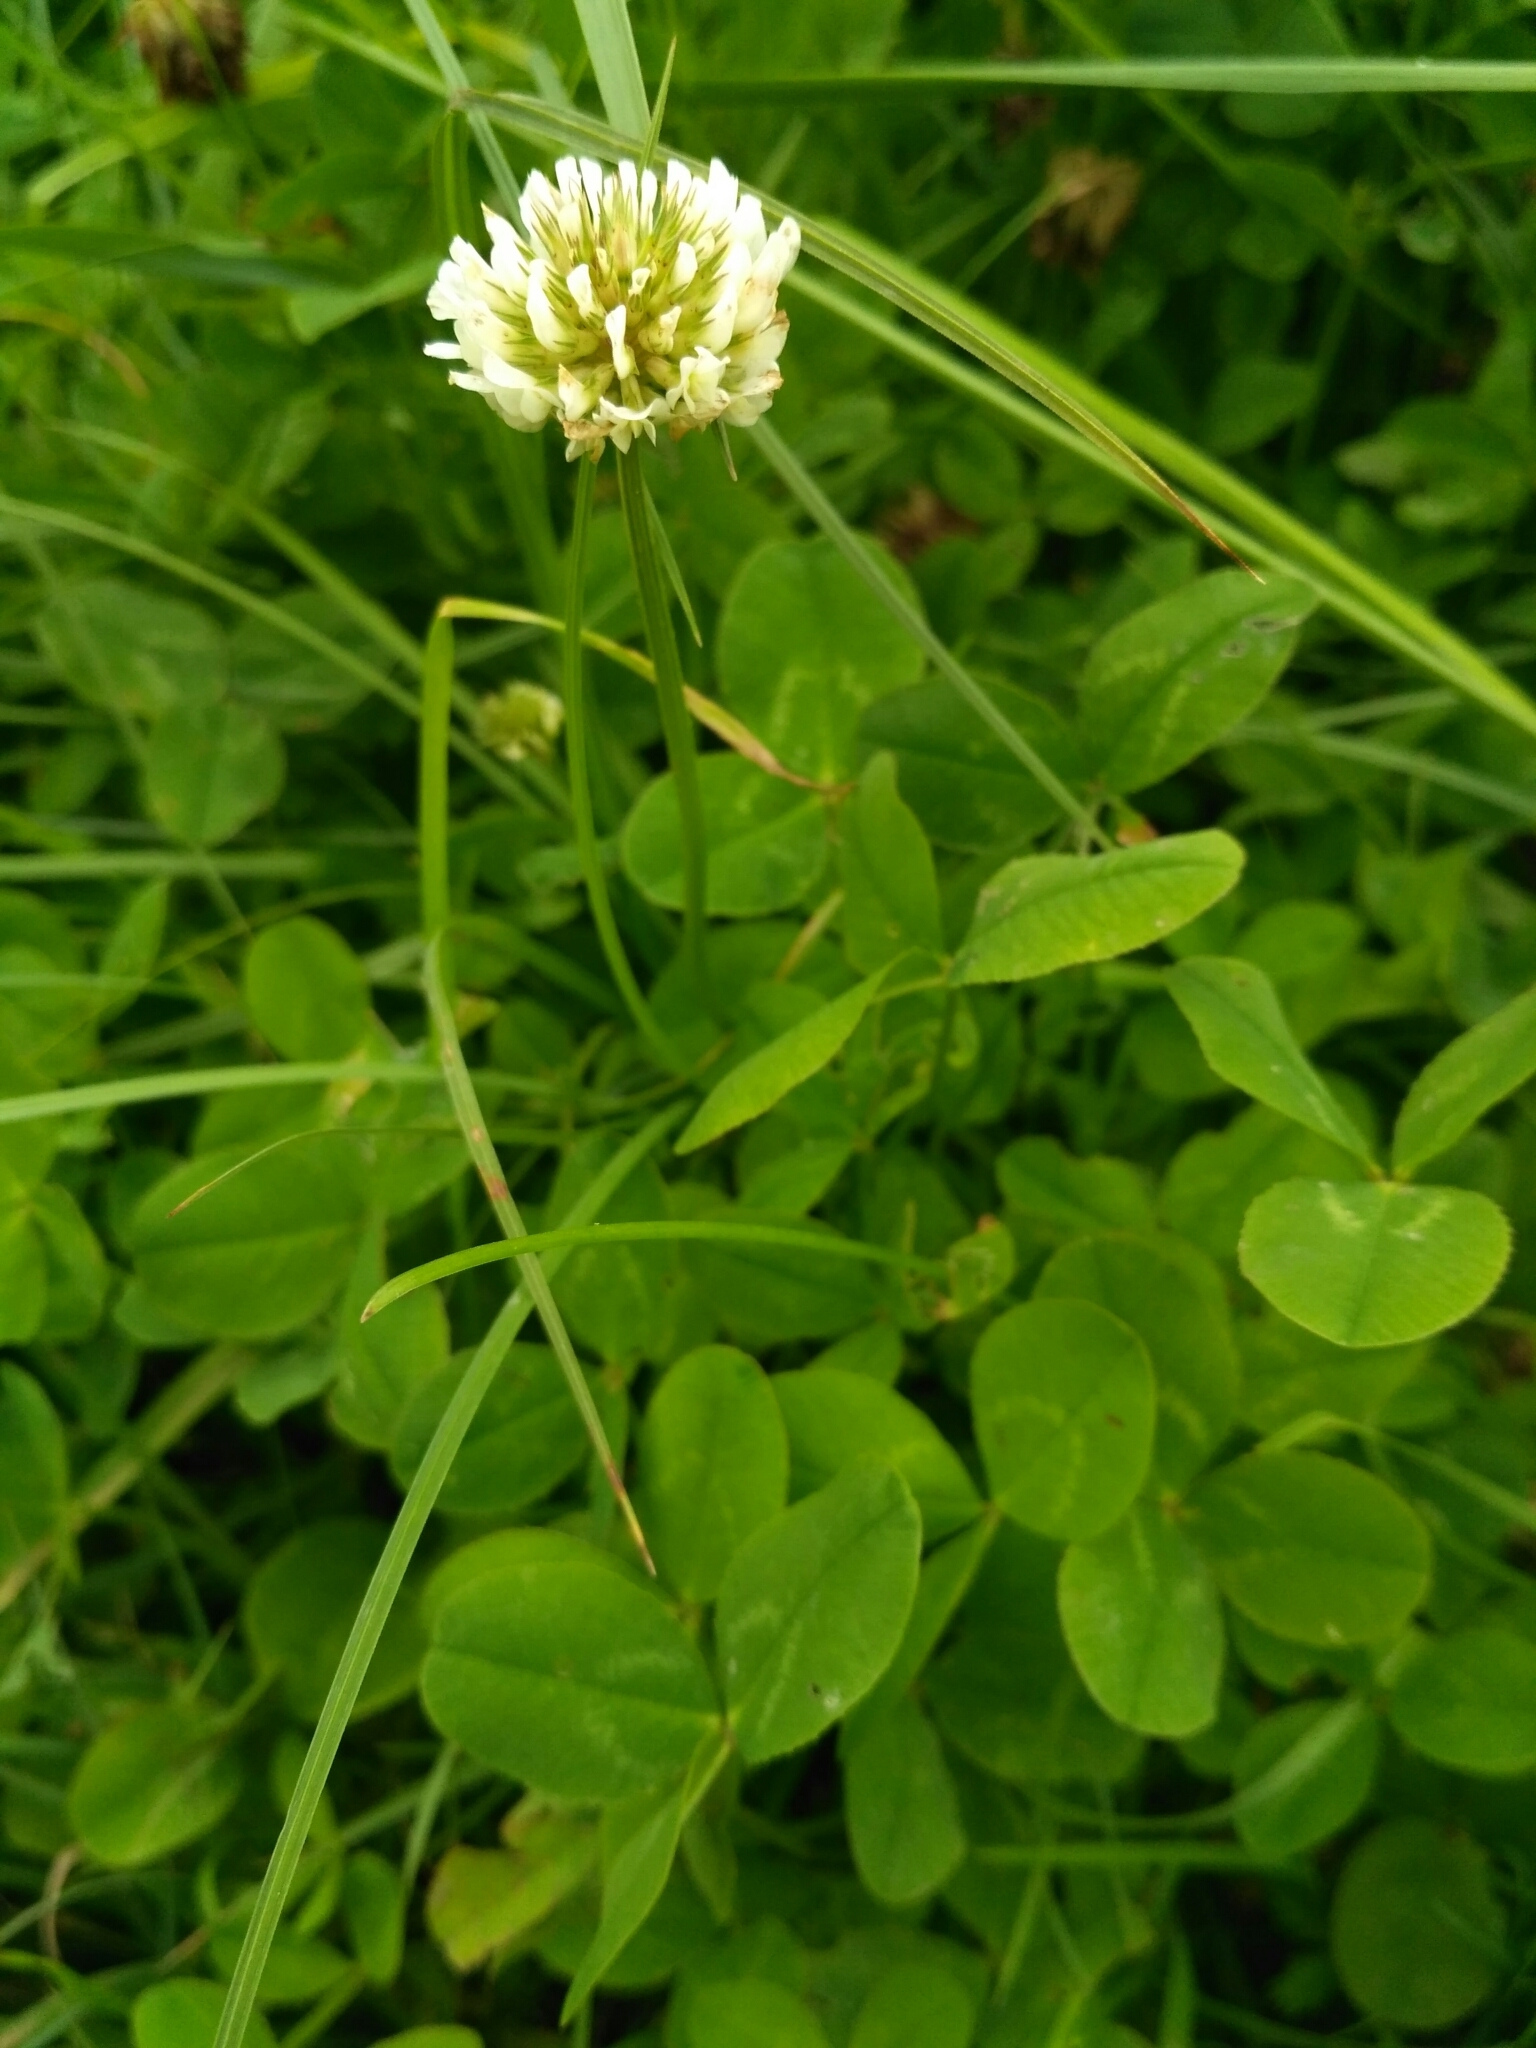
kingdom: Plantae
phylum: Tracheophyta
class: Magnoliopsida
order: Fabales
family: Fabaceae
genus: Trifolium
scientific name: Trifolium repens
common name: White clover
